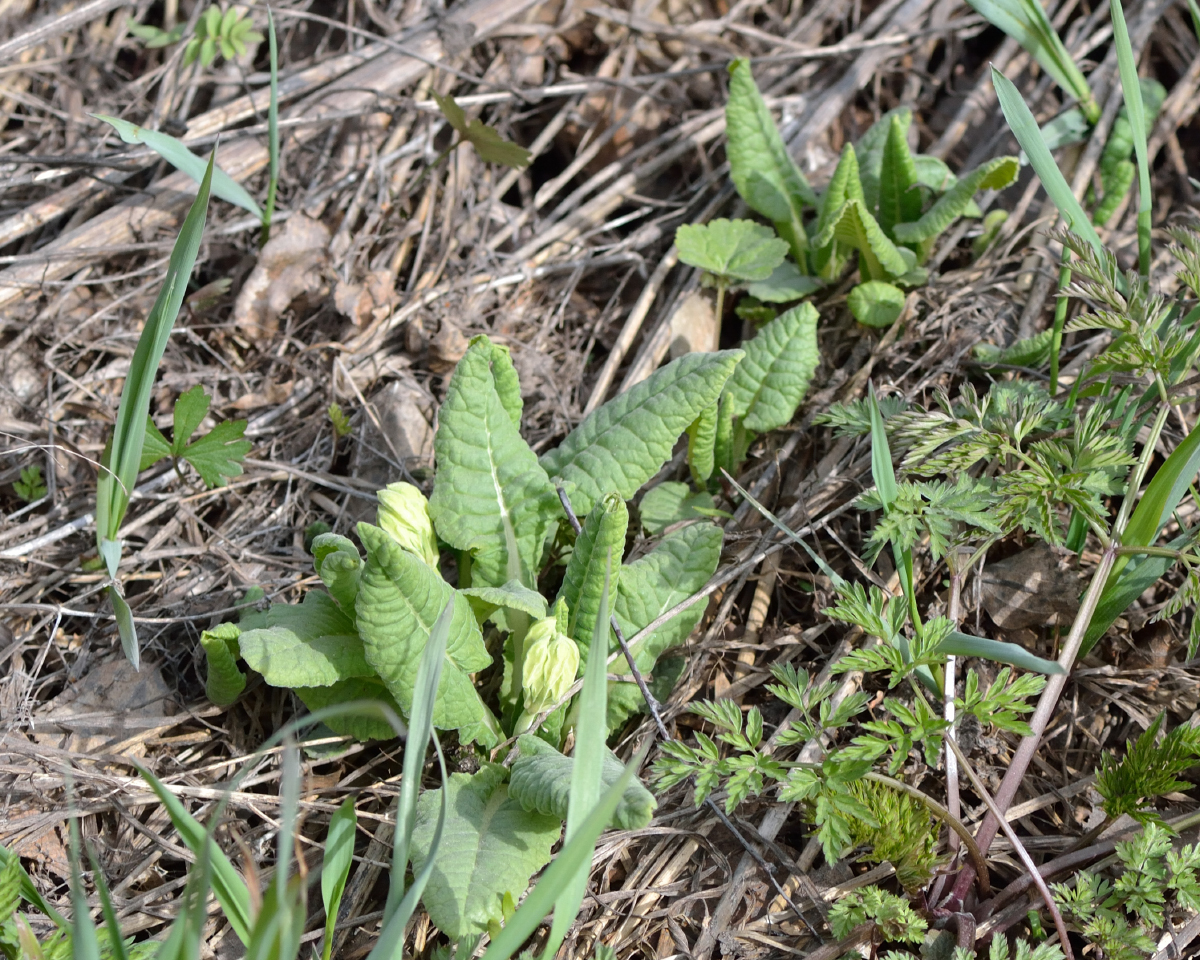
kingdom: Plantae
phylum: Tracheophyta
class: Magnoliopsida
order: Ericales
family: Primulaceae
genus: Primula
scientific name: Primula veris
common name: Cowslip
